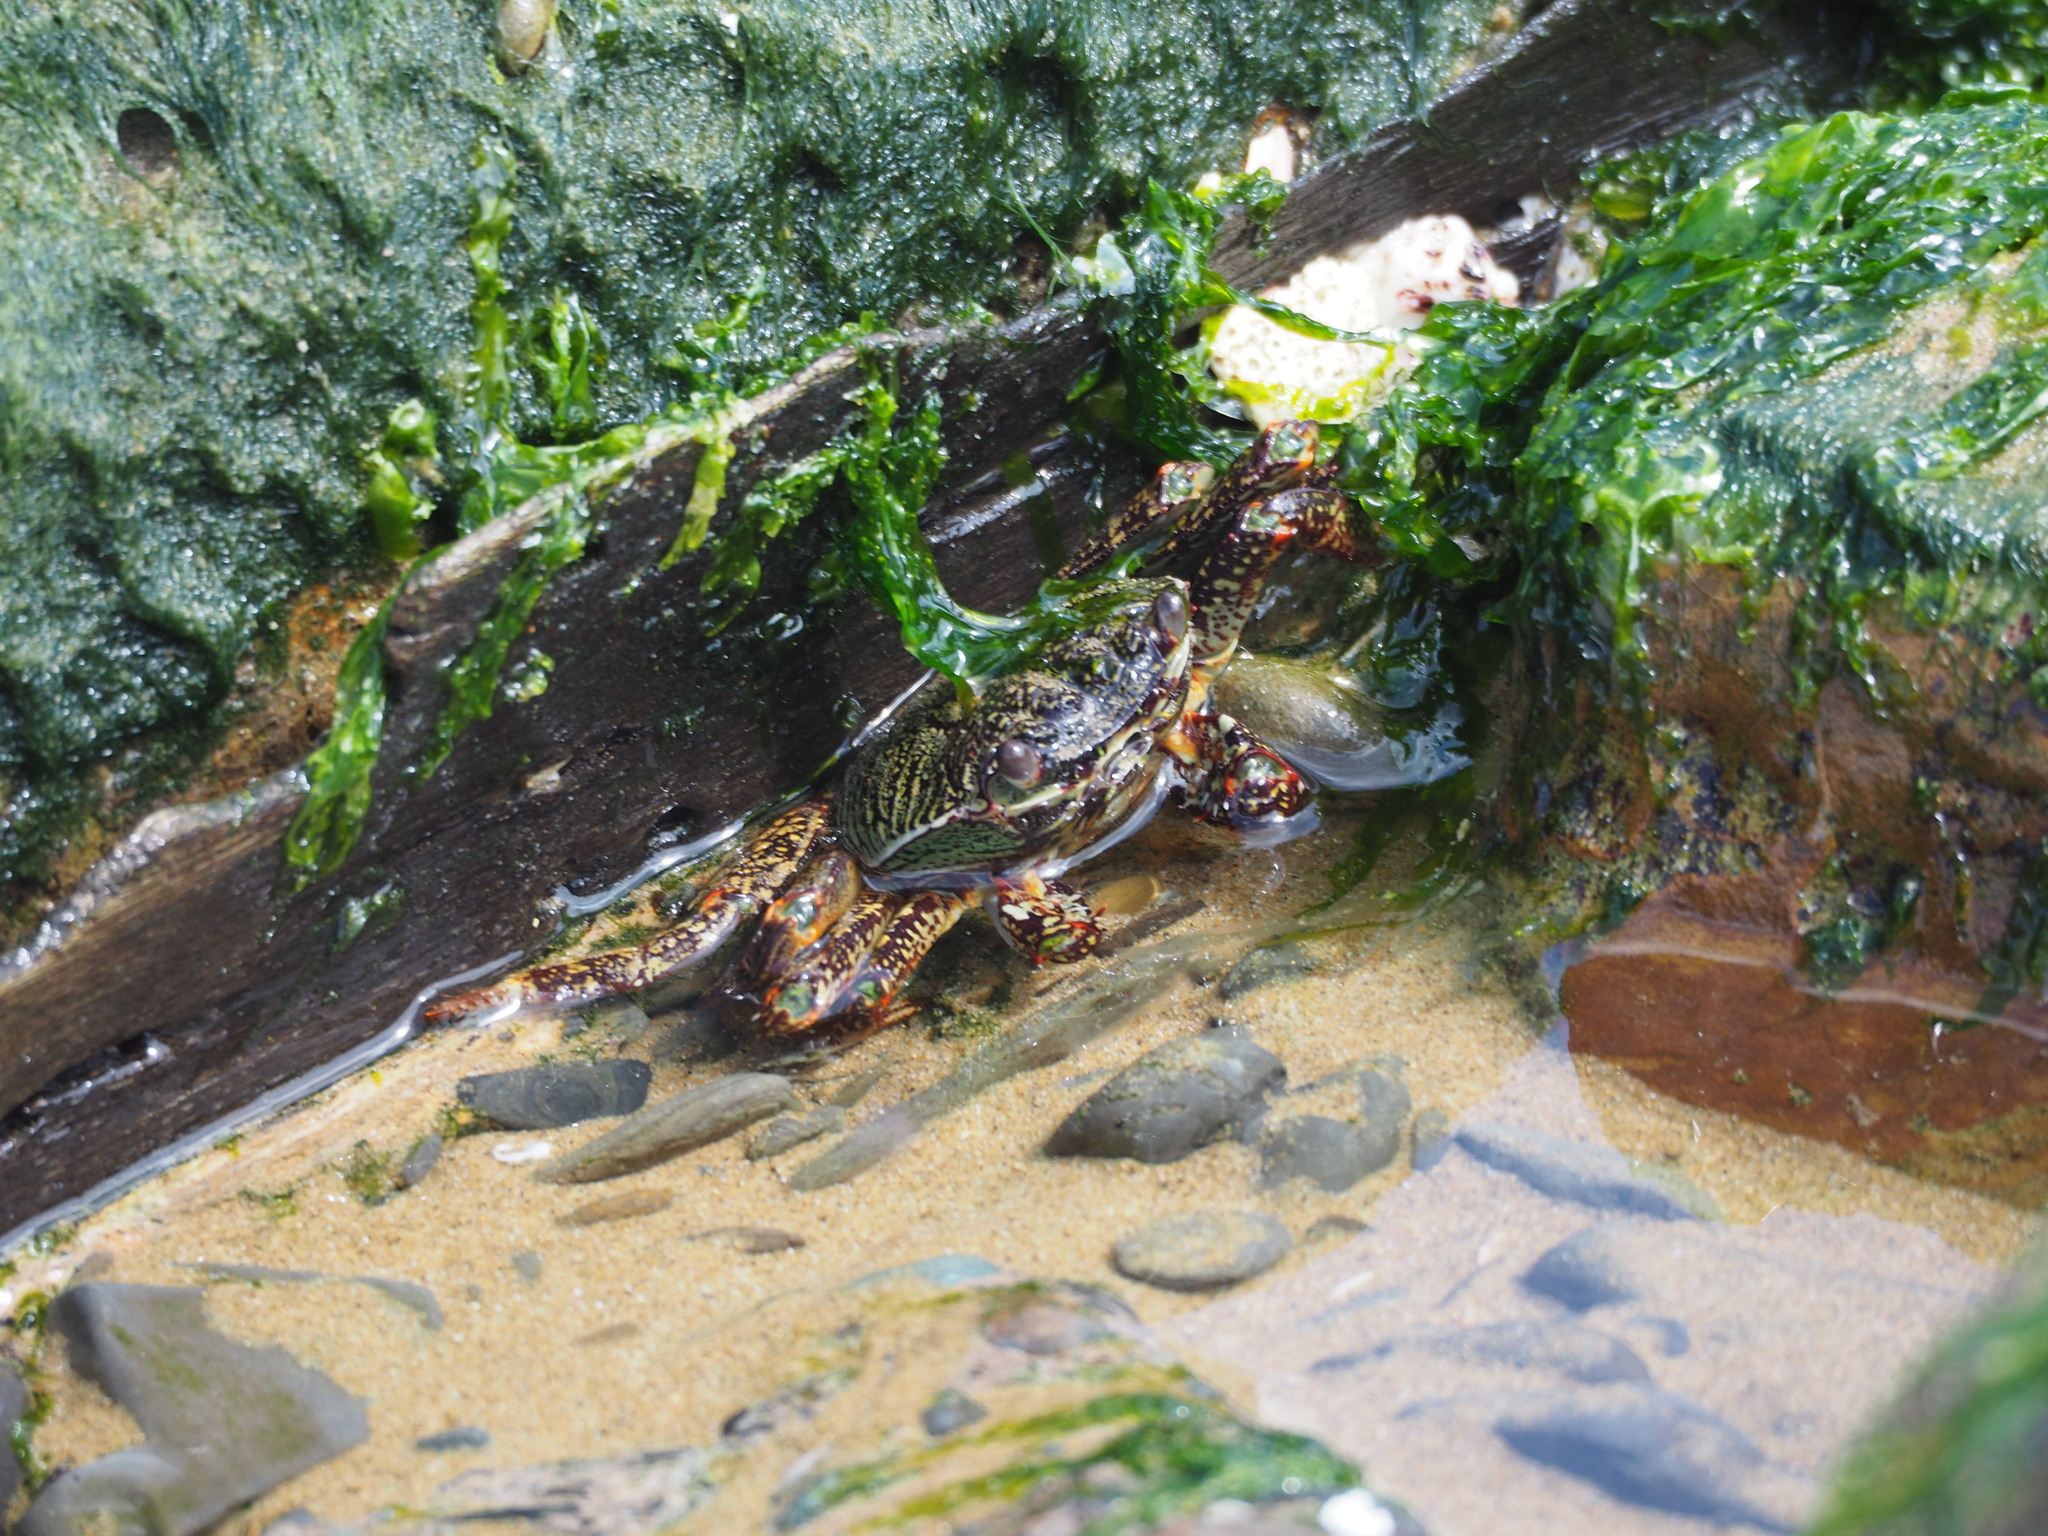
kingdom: Animalia
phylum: Arthropoda
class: Malacostraca
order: Decapoda
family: Grapsidae
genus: Grapsus
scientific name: Grapsus albolineatus
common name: Mottled lightfoot crab
